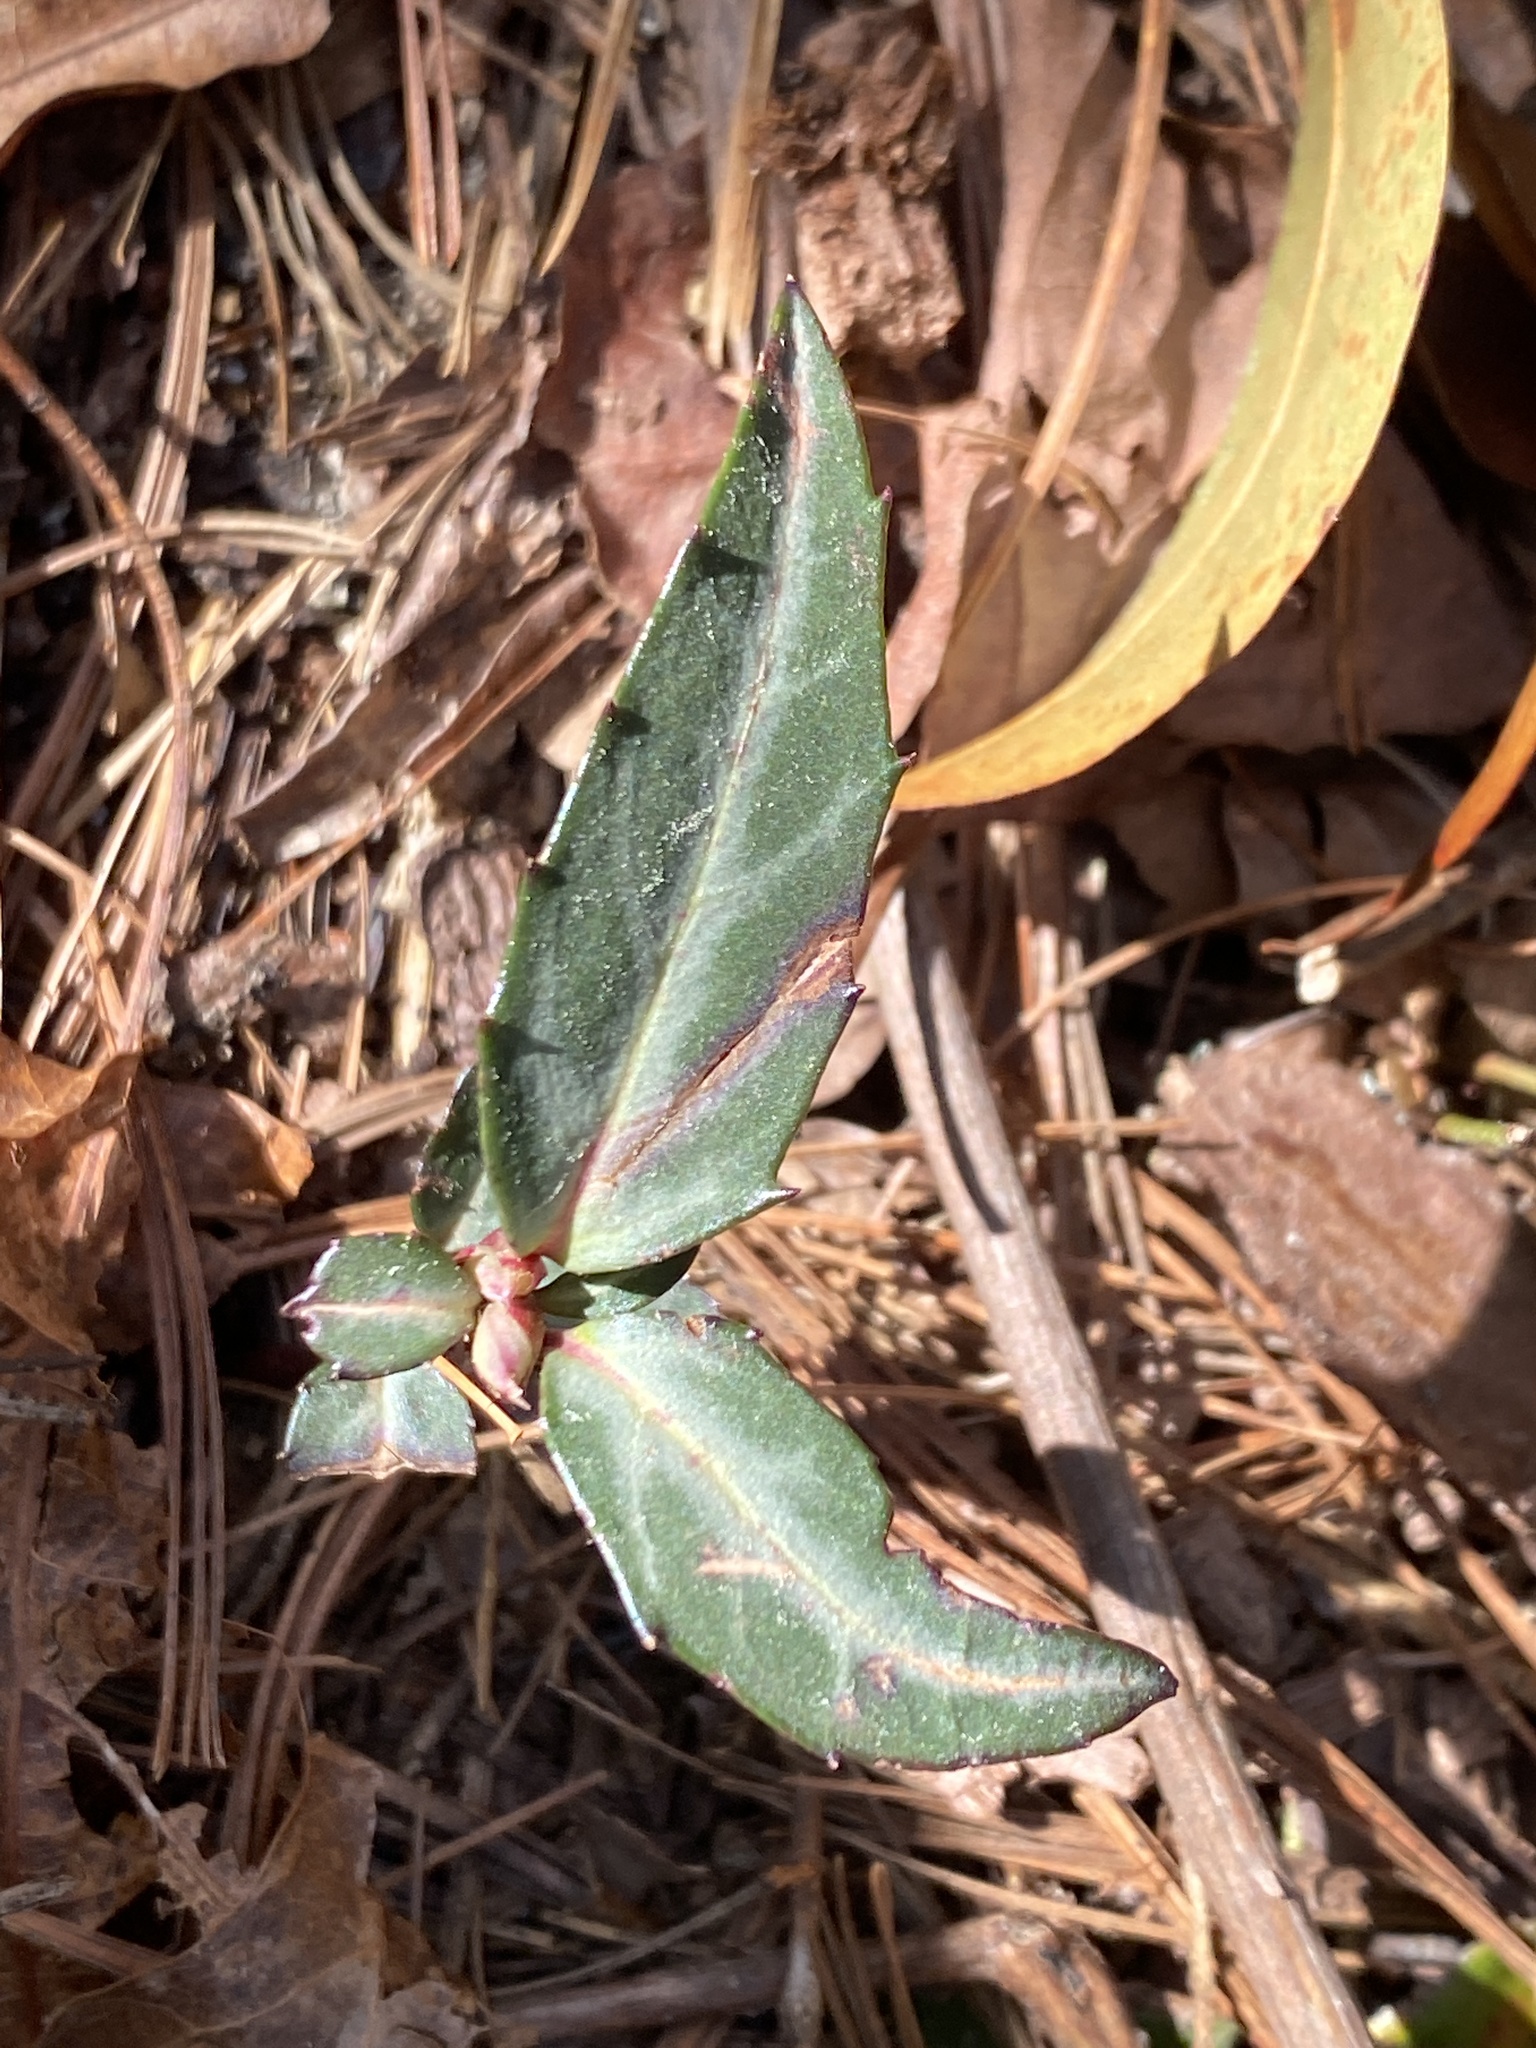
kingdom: Plantae
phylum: Tracheophyta
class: Magnoliopsida
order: Ericales
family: Ericaceae
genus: Chimaphila
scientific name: Chimaphila maculata
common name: Spotted pipsissewa
